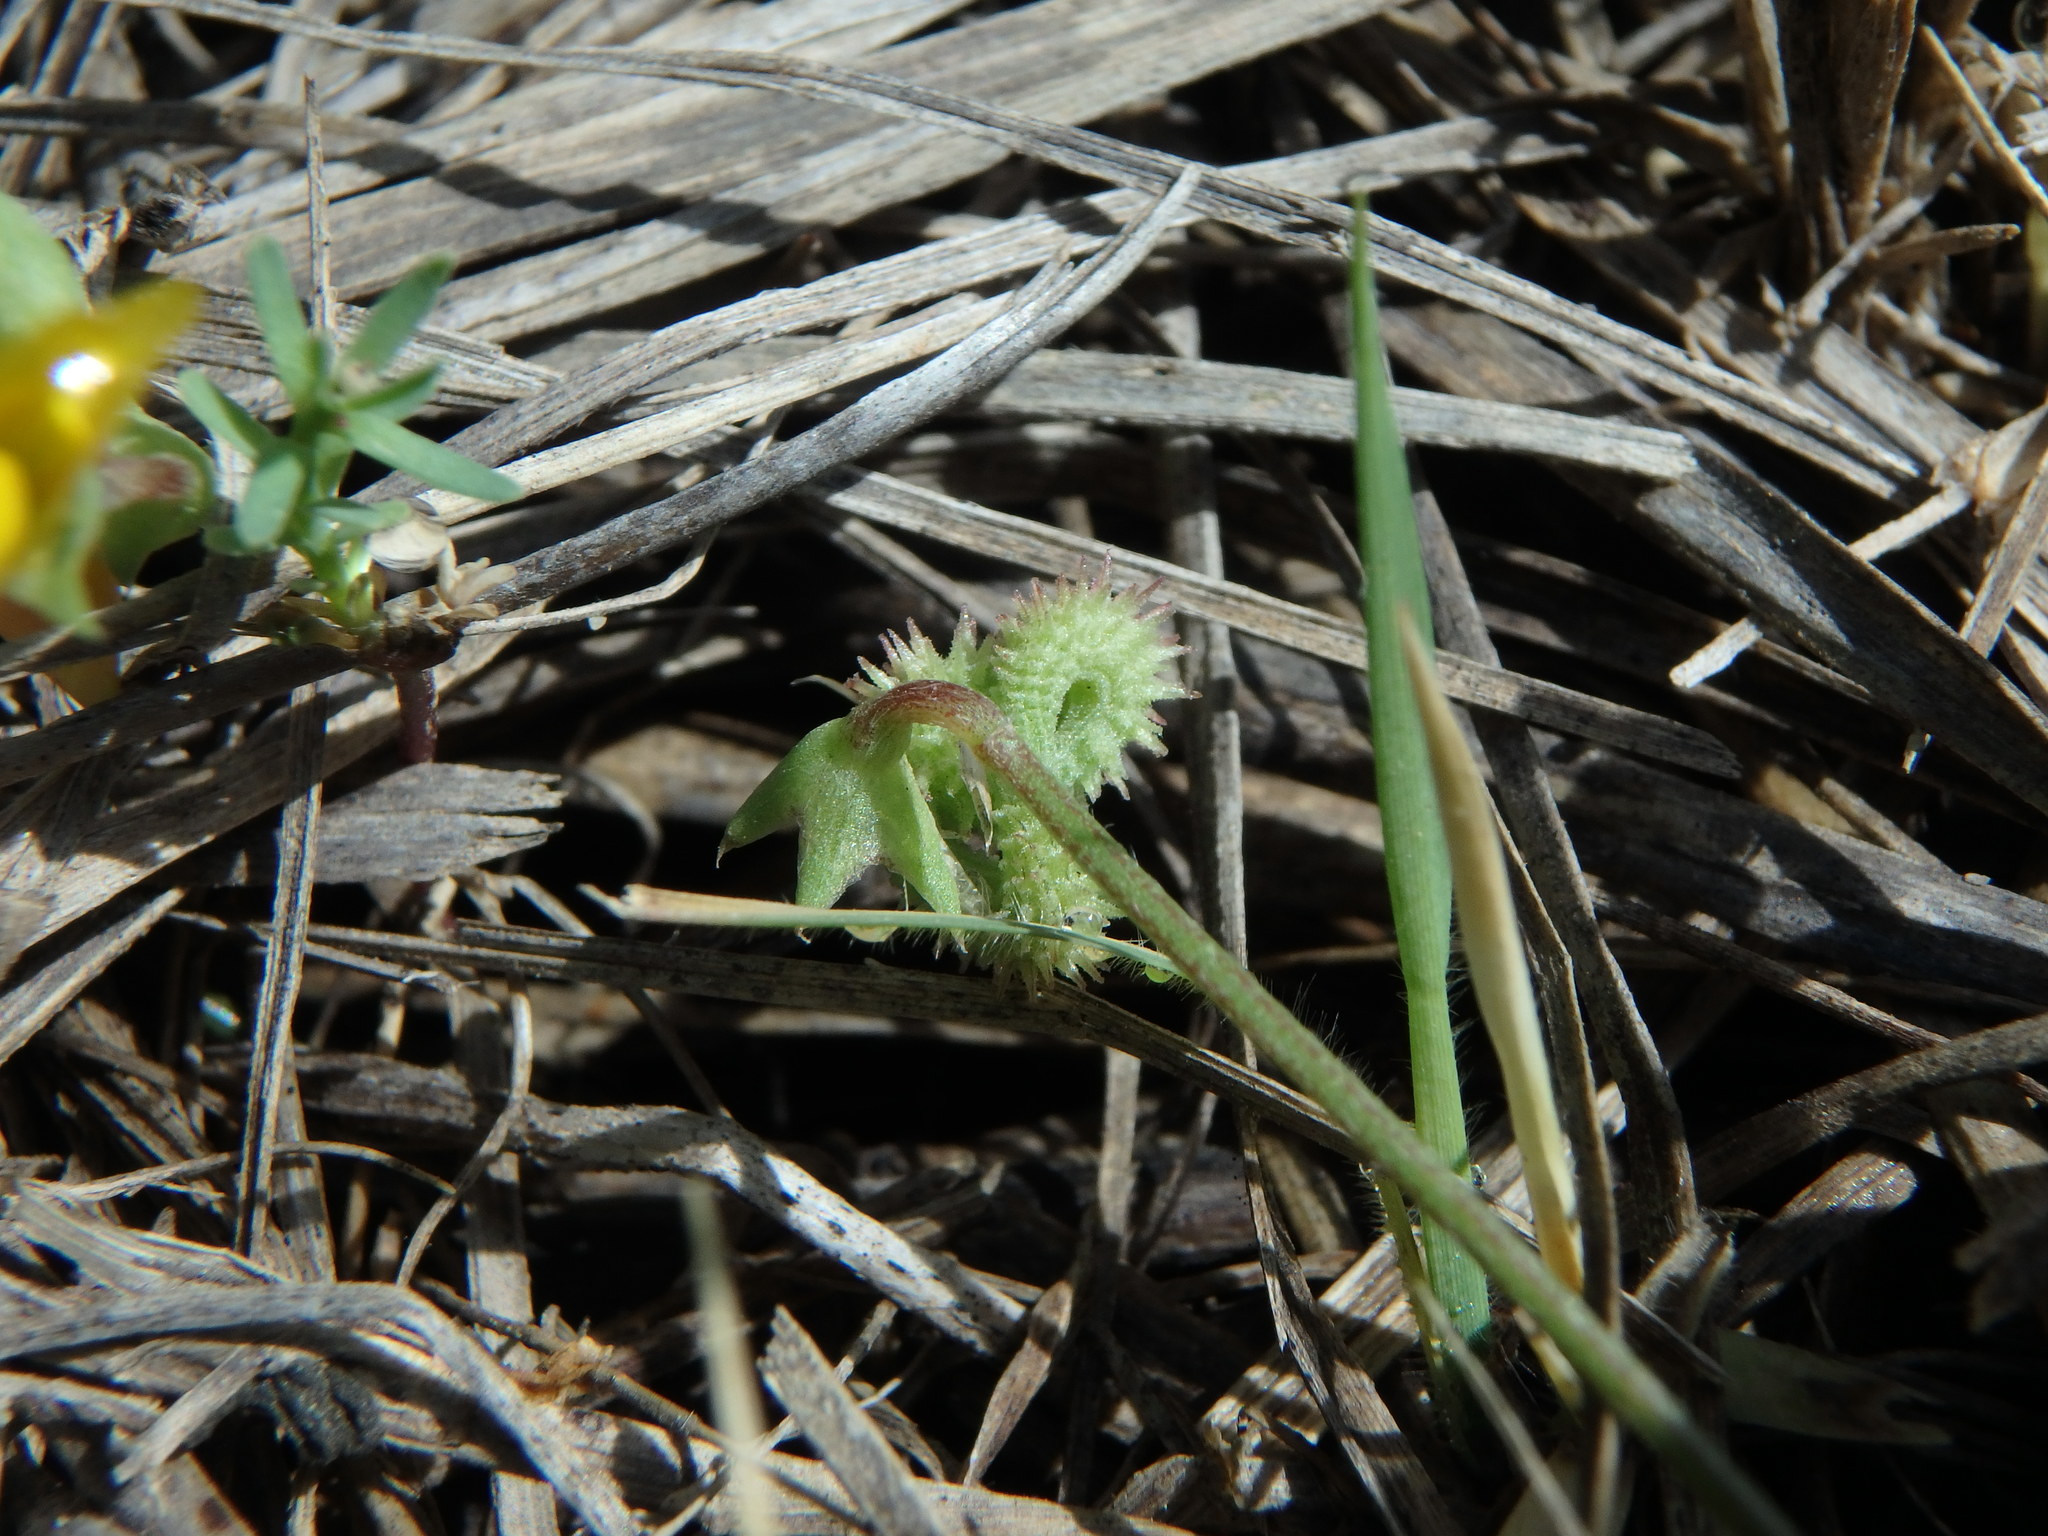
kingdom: Plantae
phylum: Tracheophyta
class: Magnoliopsida
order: Fabales
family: Fabaceae
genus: Scorpiurus
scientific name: Scorpiurus muricatus
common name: Caterpillar-plant
